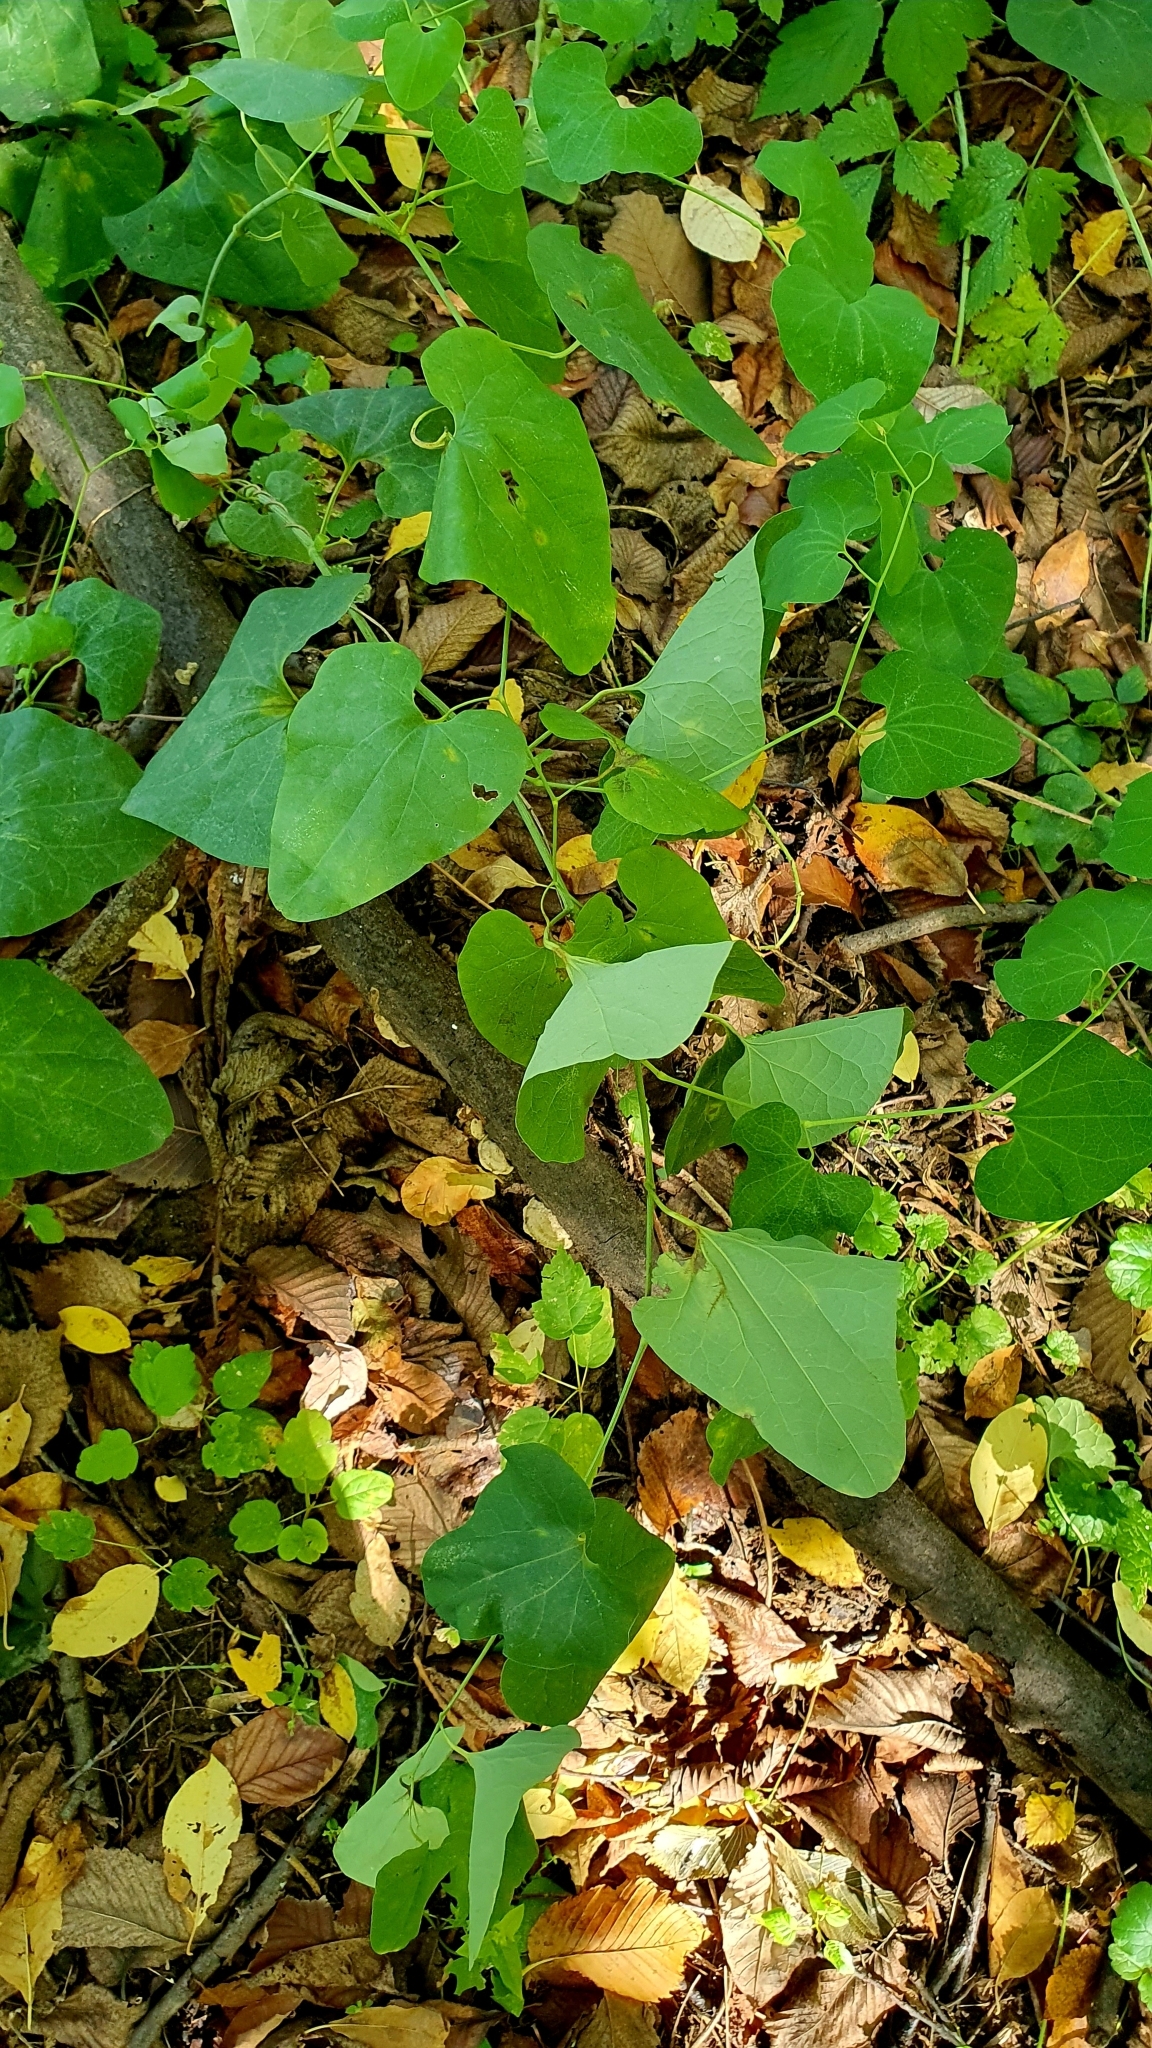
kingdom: Plantae
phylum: Tracheophyta
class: Magnoliopsida
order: Piperales
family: Aristolochiaceae
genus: Aristolochia
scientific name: Aristolochia clematitis
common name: Birthwort
